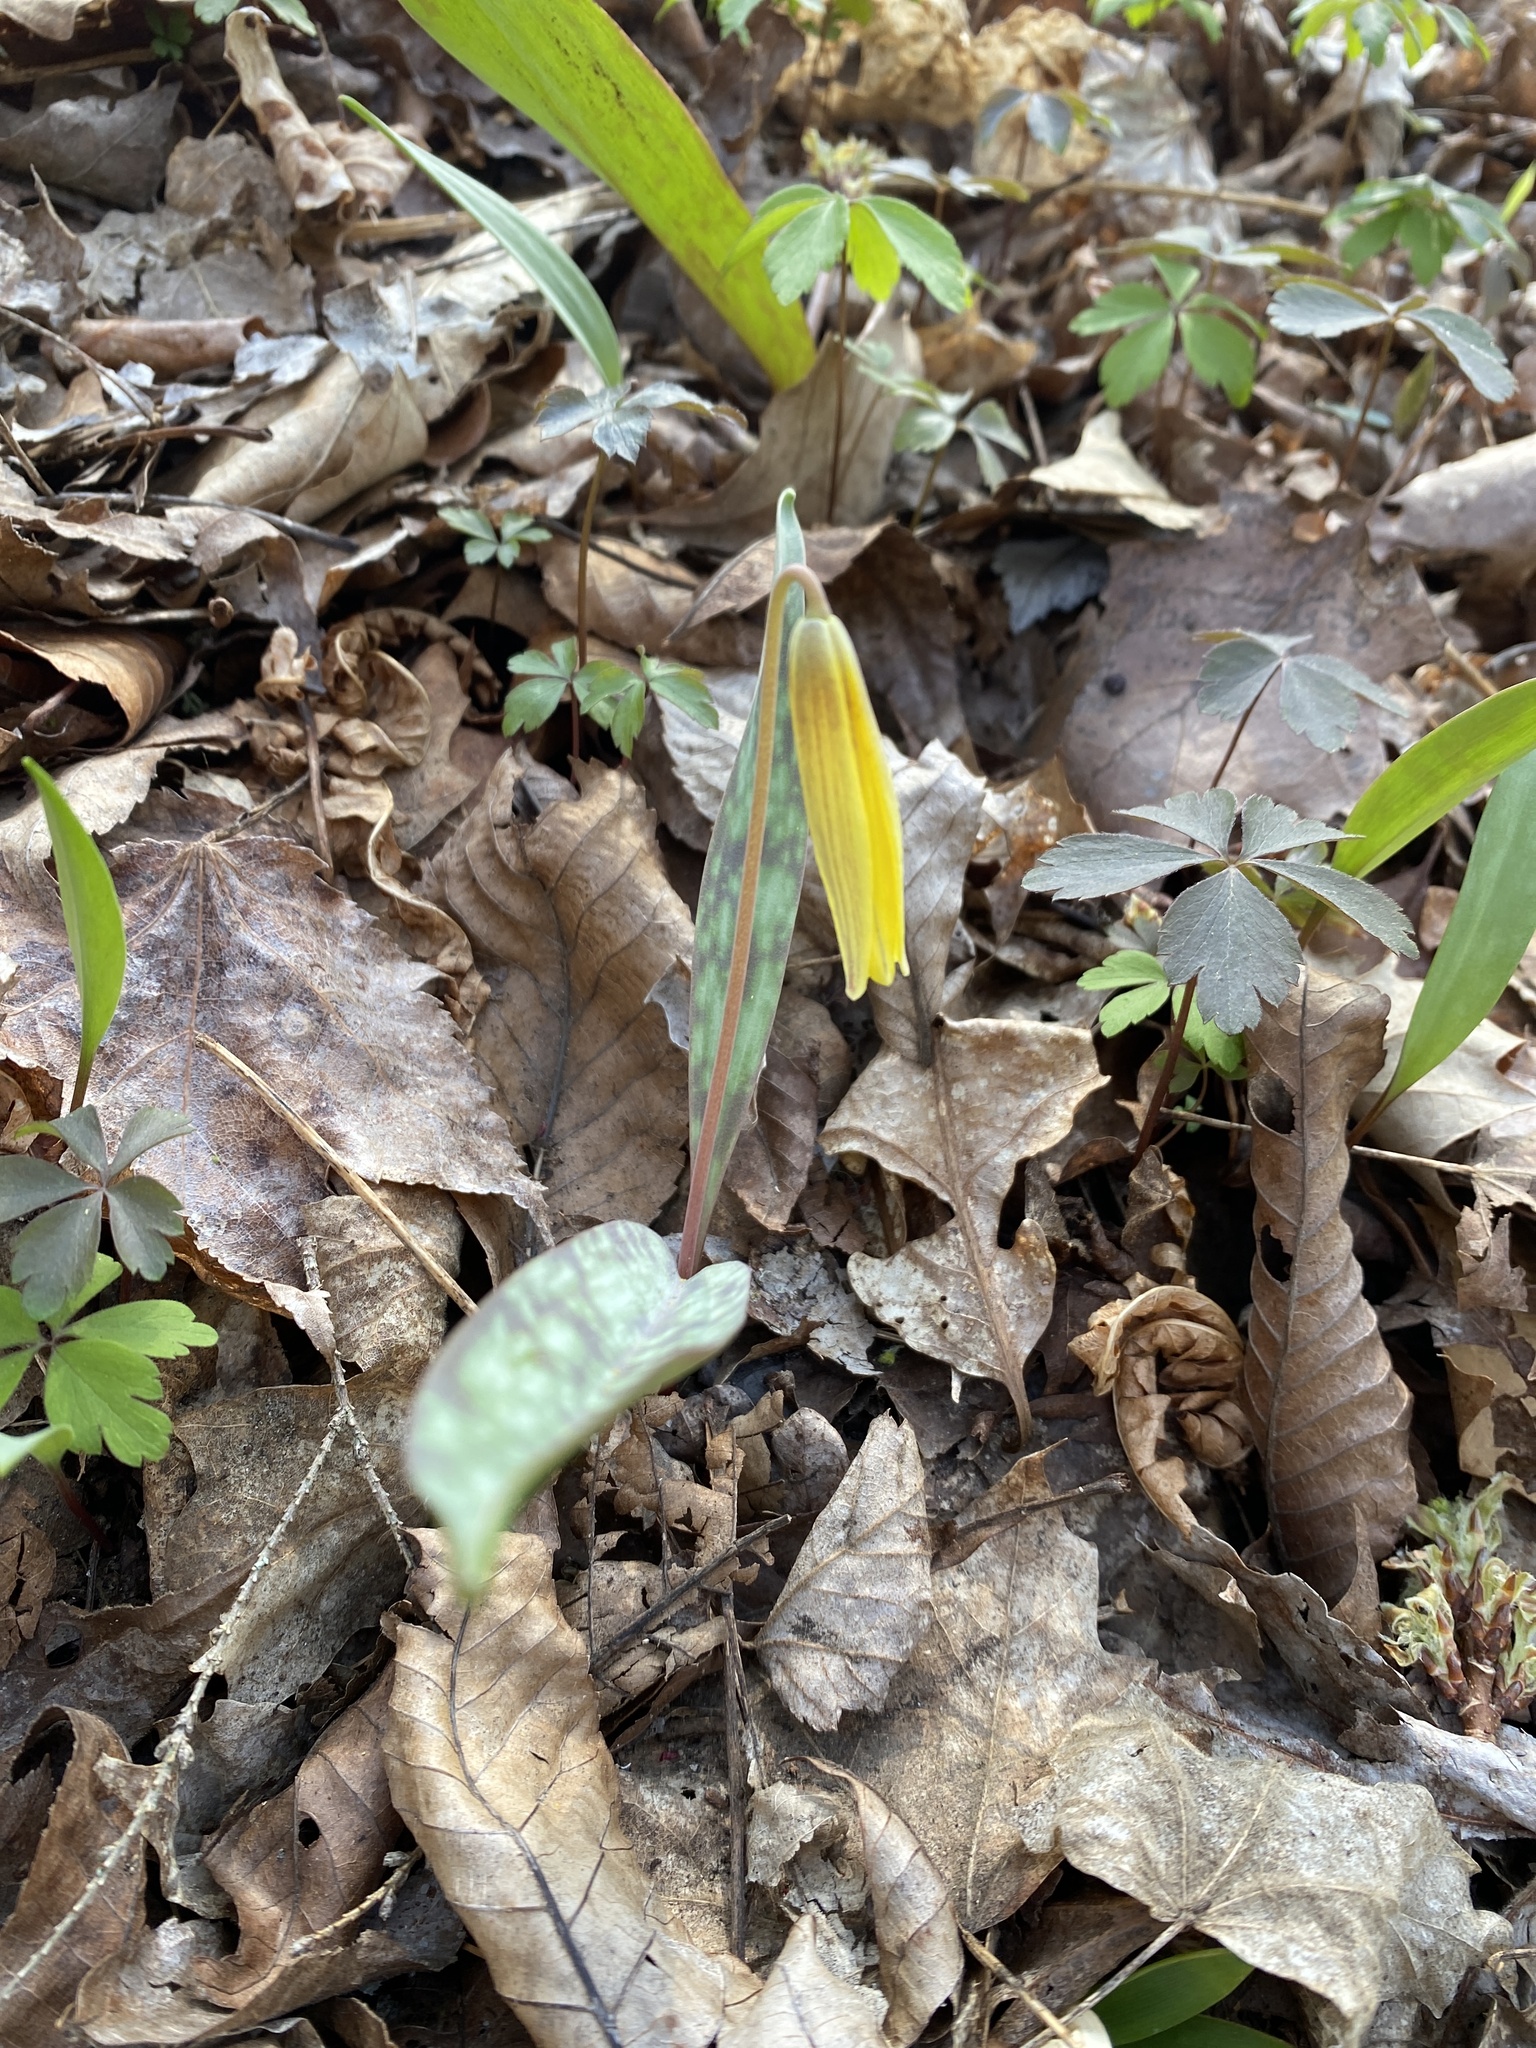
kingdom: Plantae
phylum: Tracheophyta
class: Liliopsida
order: Liliales
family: Liliaceae
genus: Erythronium
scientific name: Erythronium americanum
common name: Yellow adder's-tongue
